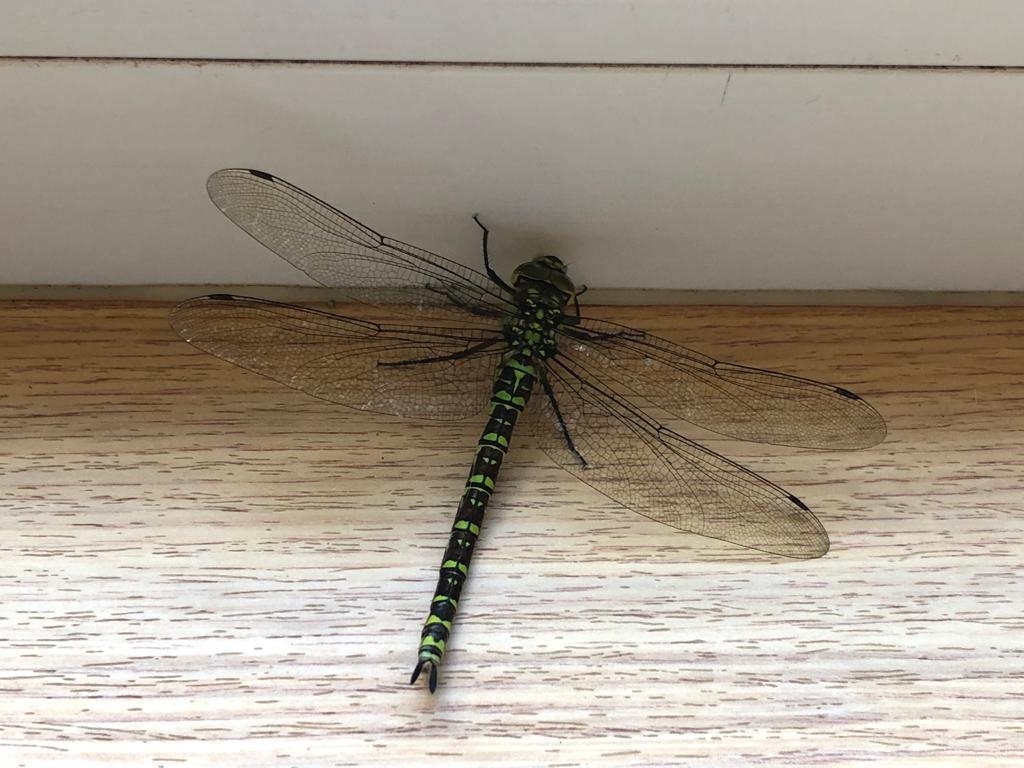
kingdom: Animalia
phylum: Arthropoda
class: Insecta
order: Odonata
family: Aeshnidae
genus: Aeshna
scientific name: Aeshna cyanea
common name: Southern hawker
